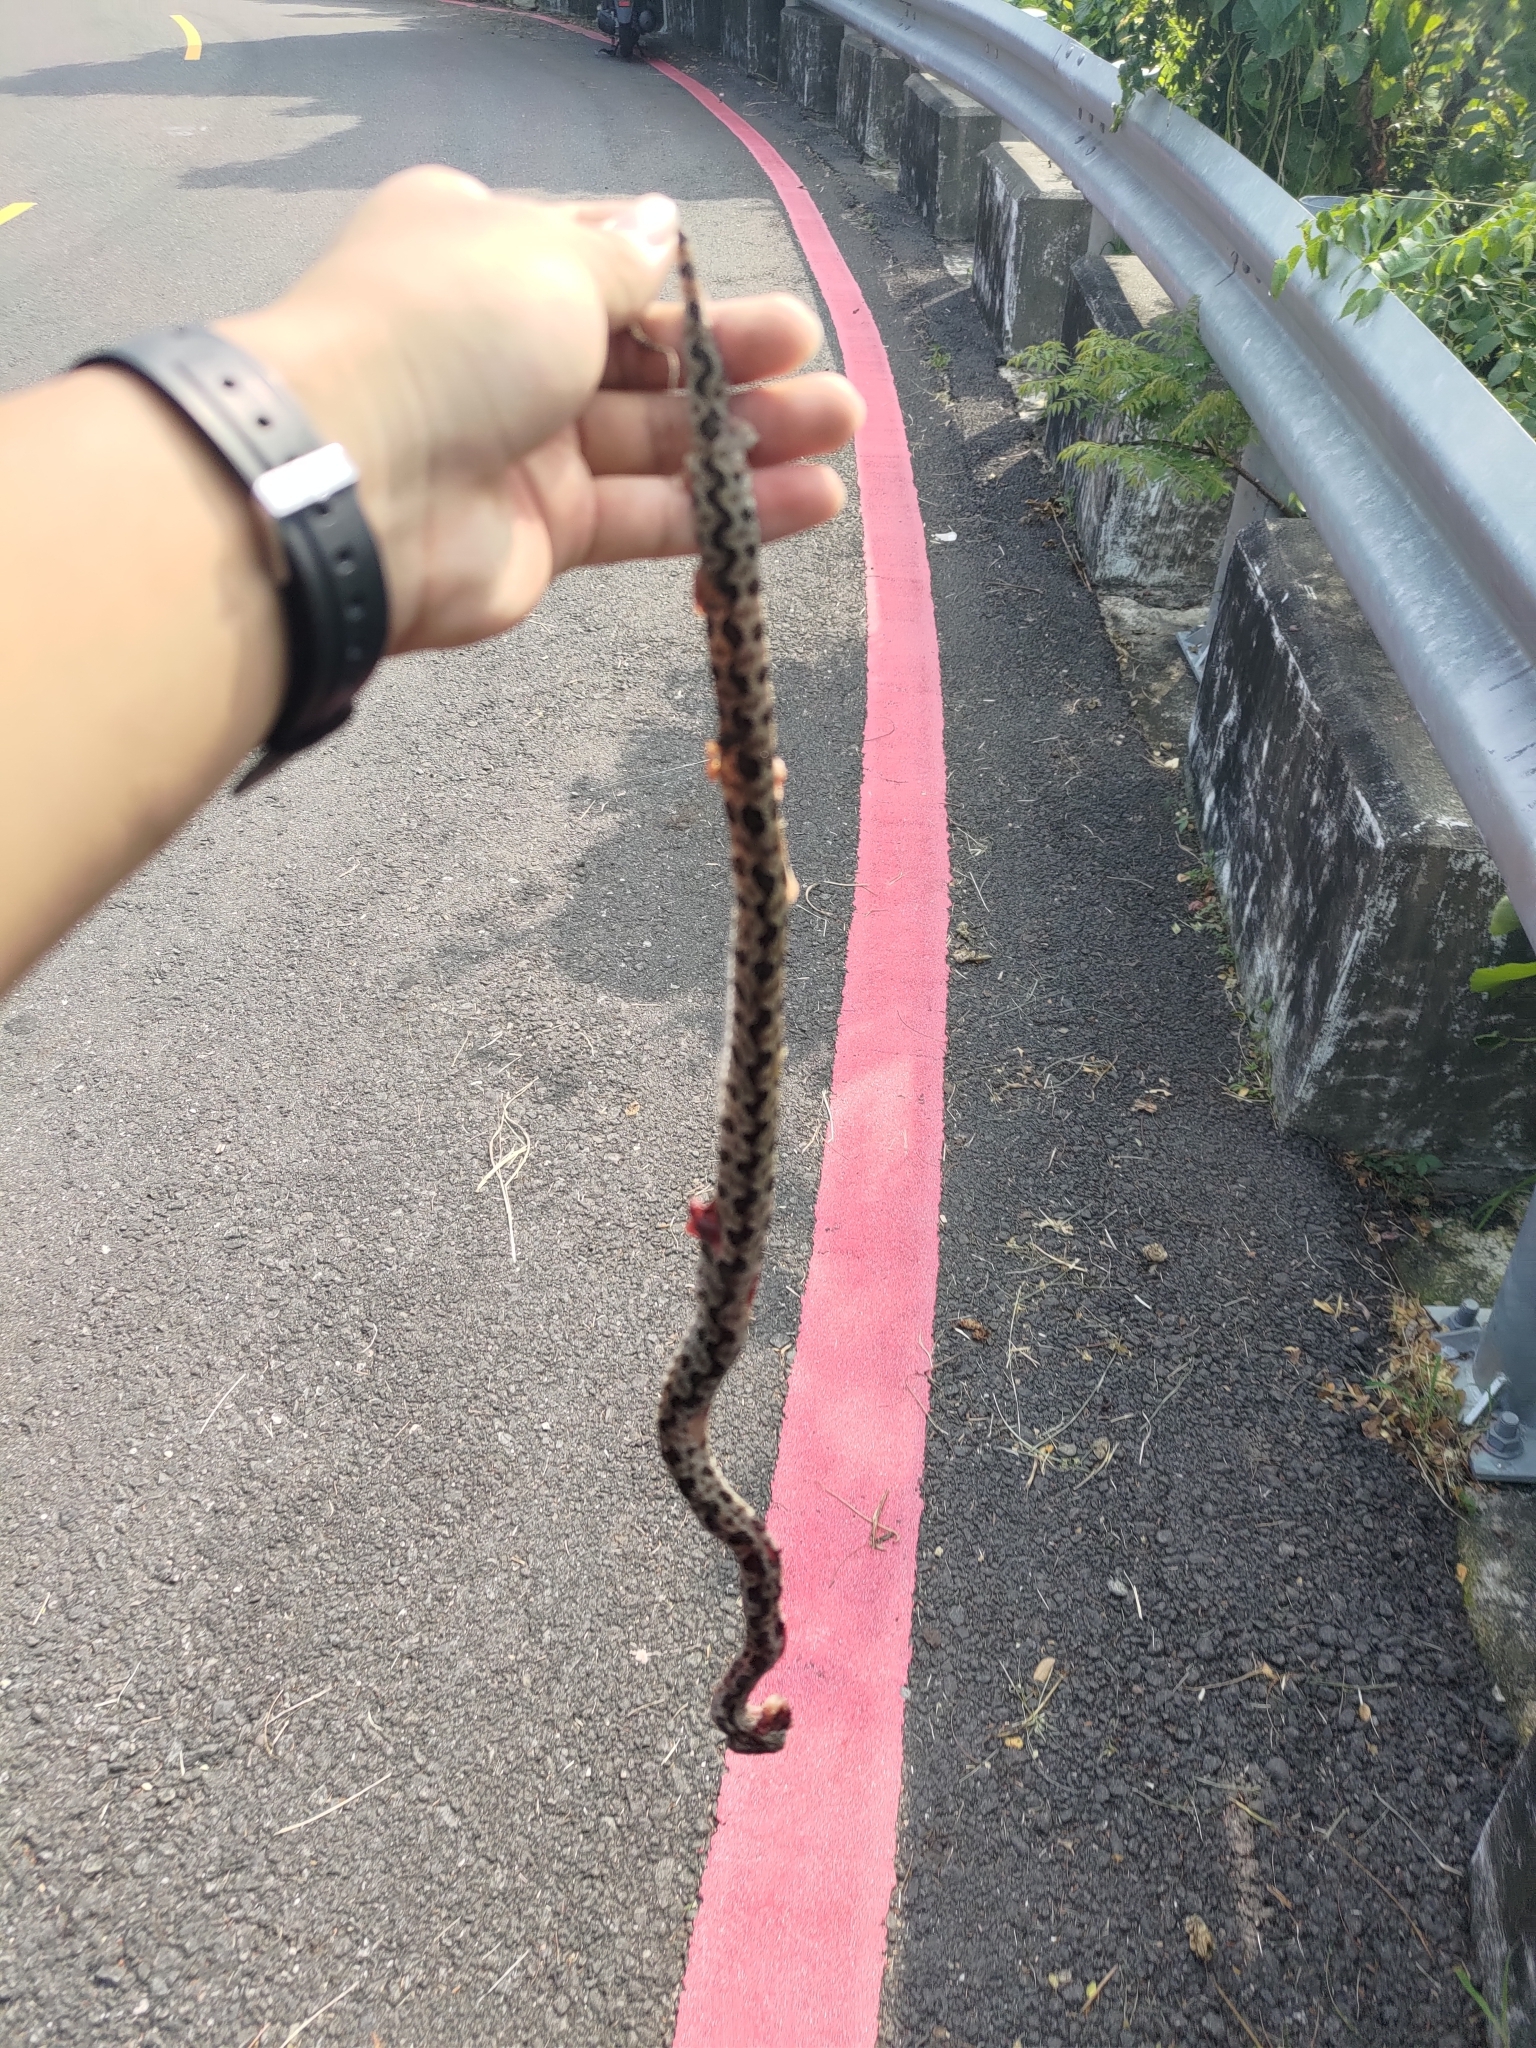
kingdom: Animalia
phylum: Chordata
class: Squamata
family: Viperidae
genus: Protobothrops
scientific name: Protobothrops mucrosquamatus
